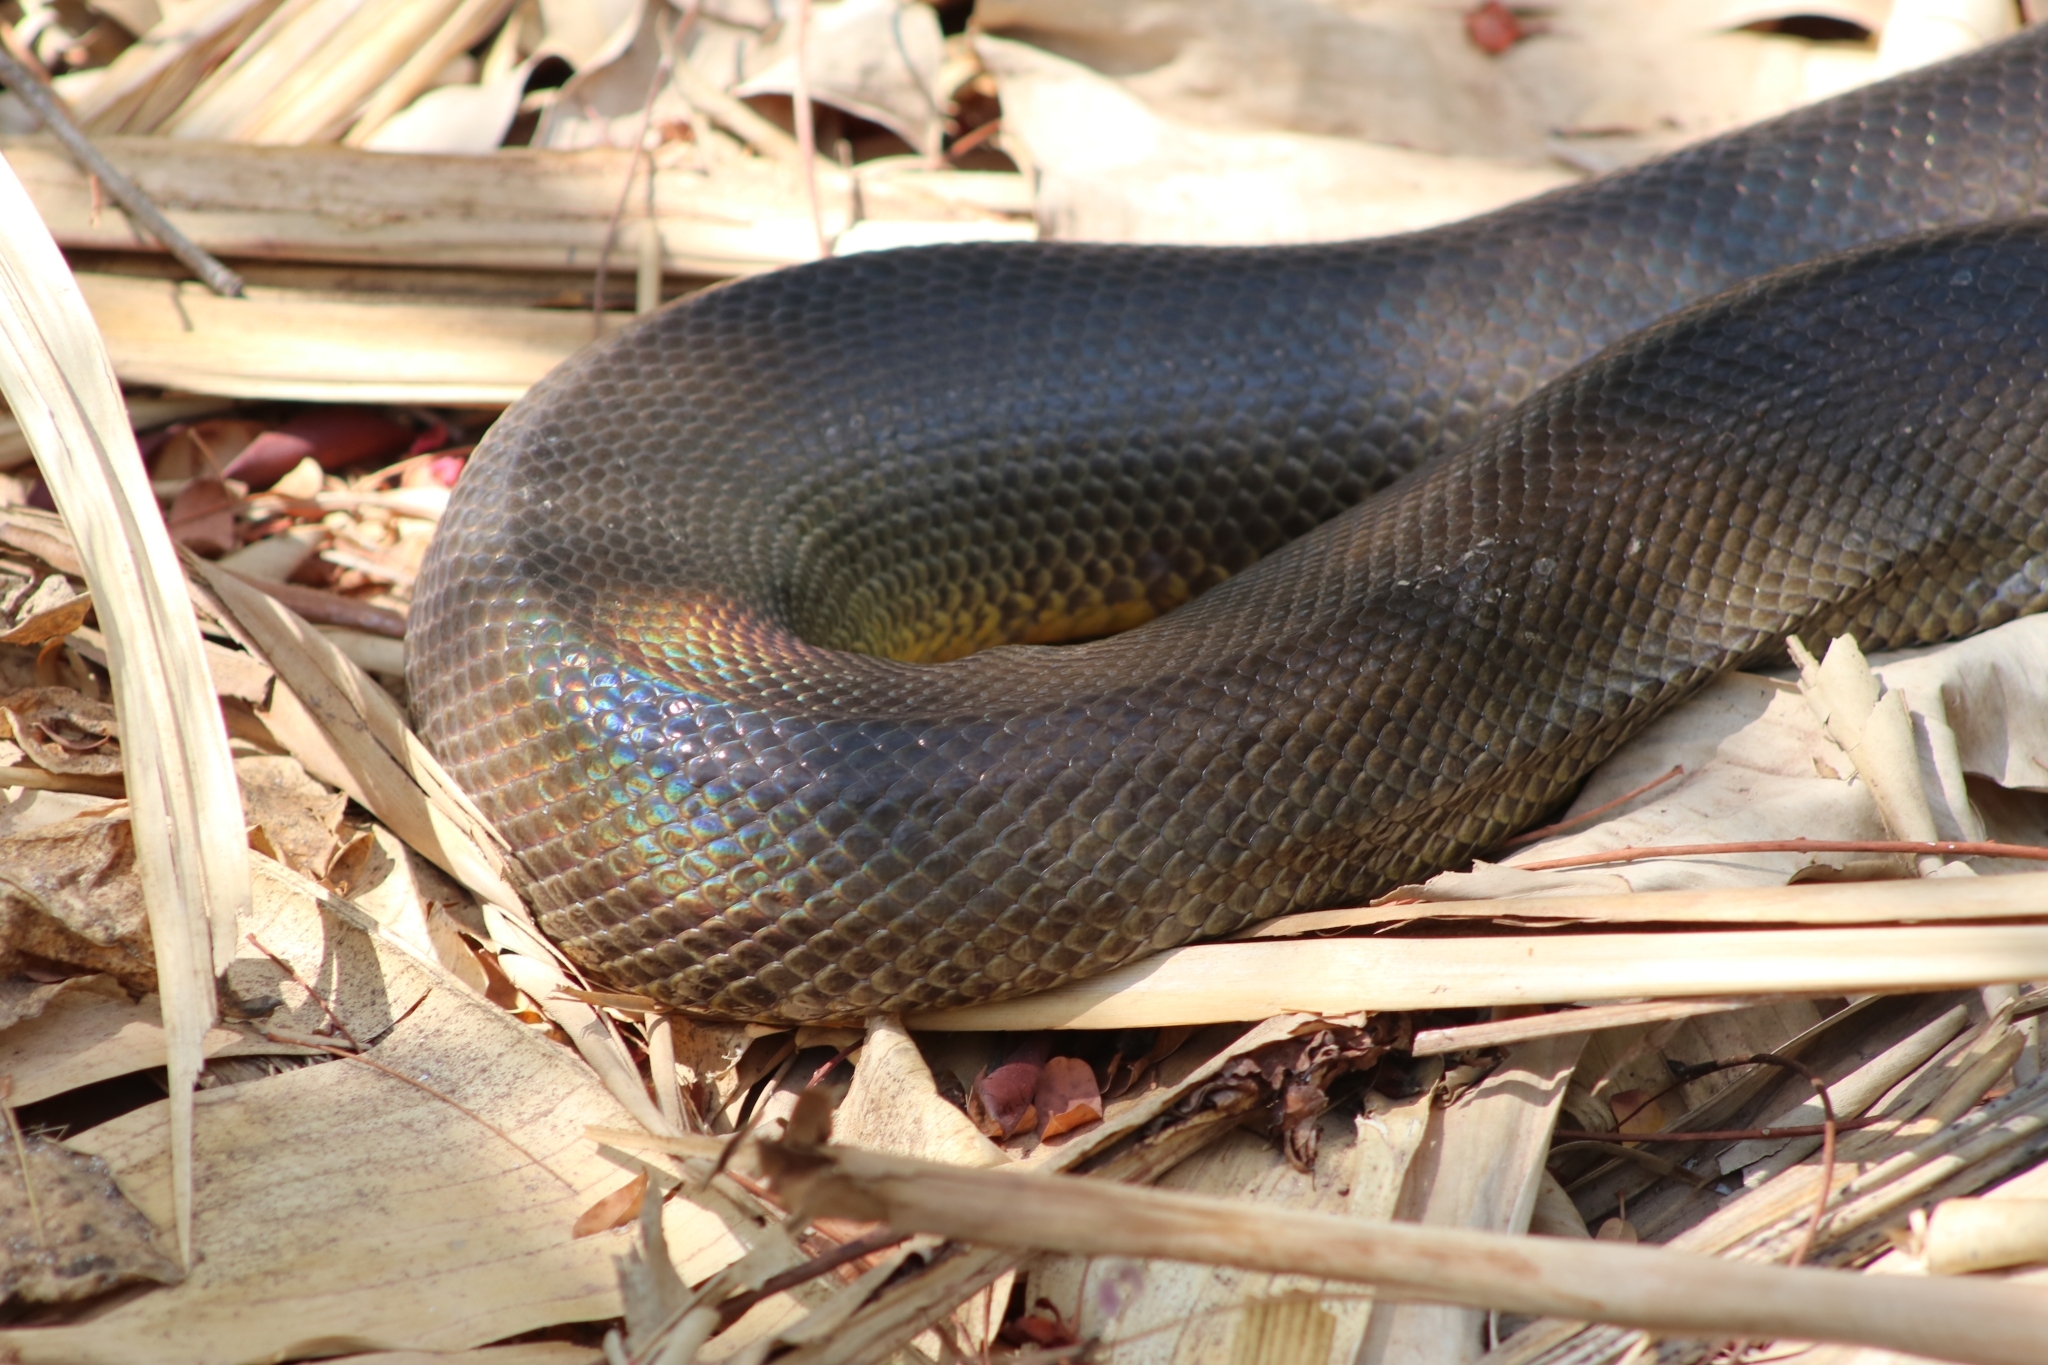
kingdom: Animalia
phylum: Chordata
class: Squamata
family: Pythonidae
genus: Liasis
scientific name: Liasis fuscus
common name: Brown water python
